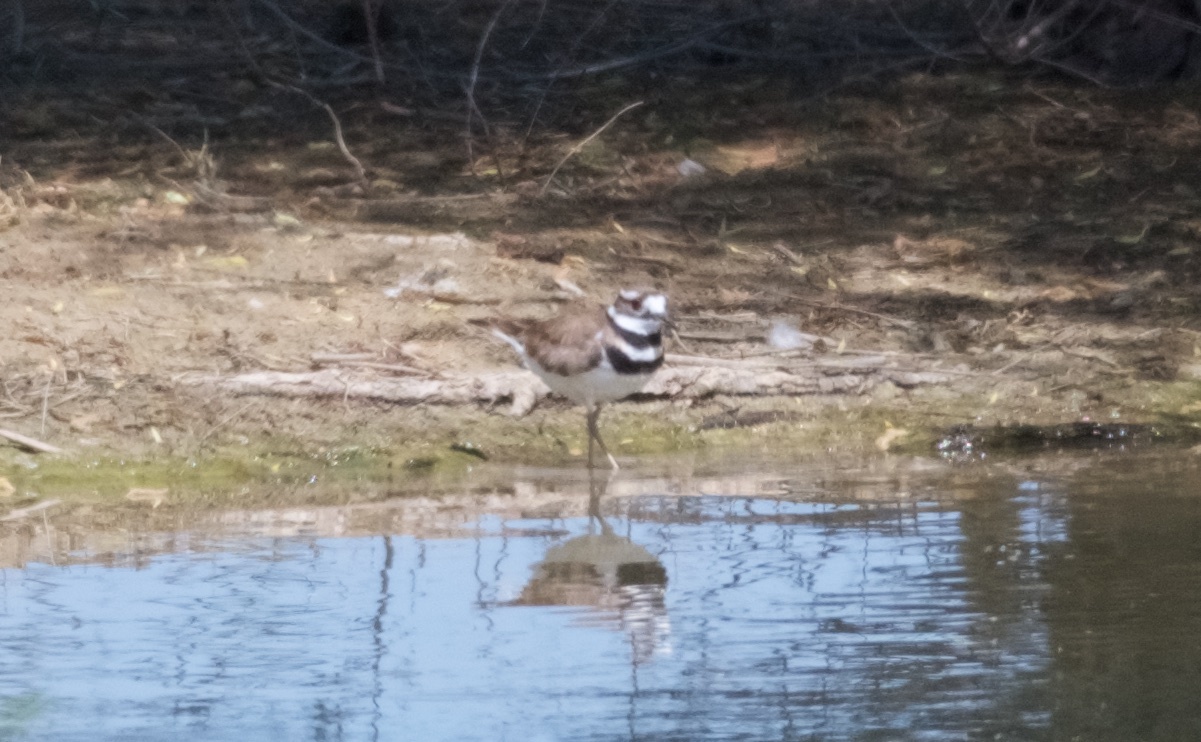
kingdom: Animalia
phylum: Chordata
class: Aves
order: Charadriiformes
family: Charadriidae
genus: Charadrius
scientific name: Charadrius vociferus
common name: Killdeer
